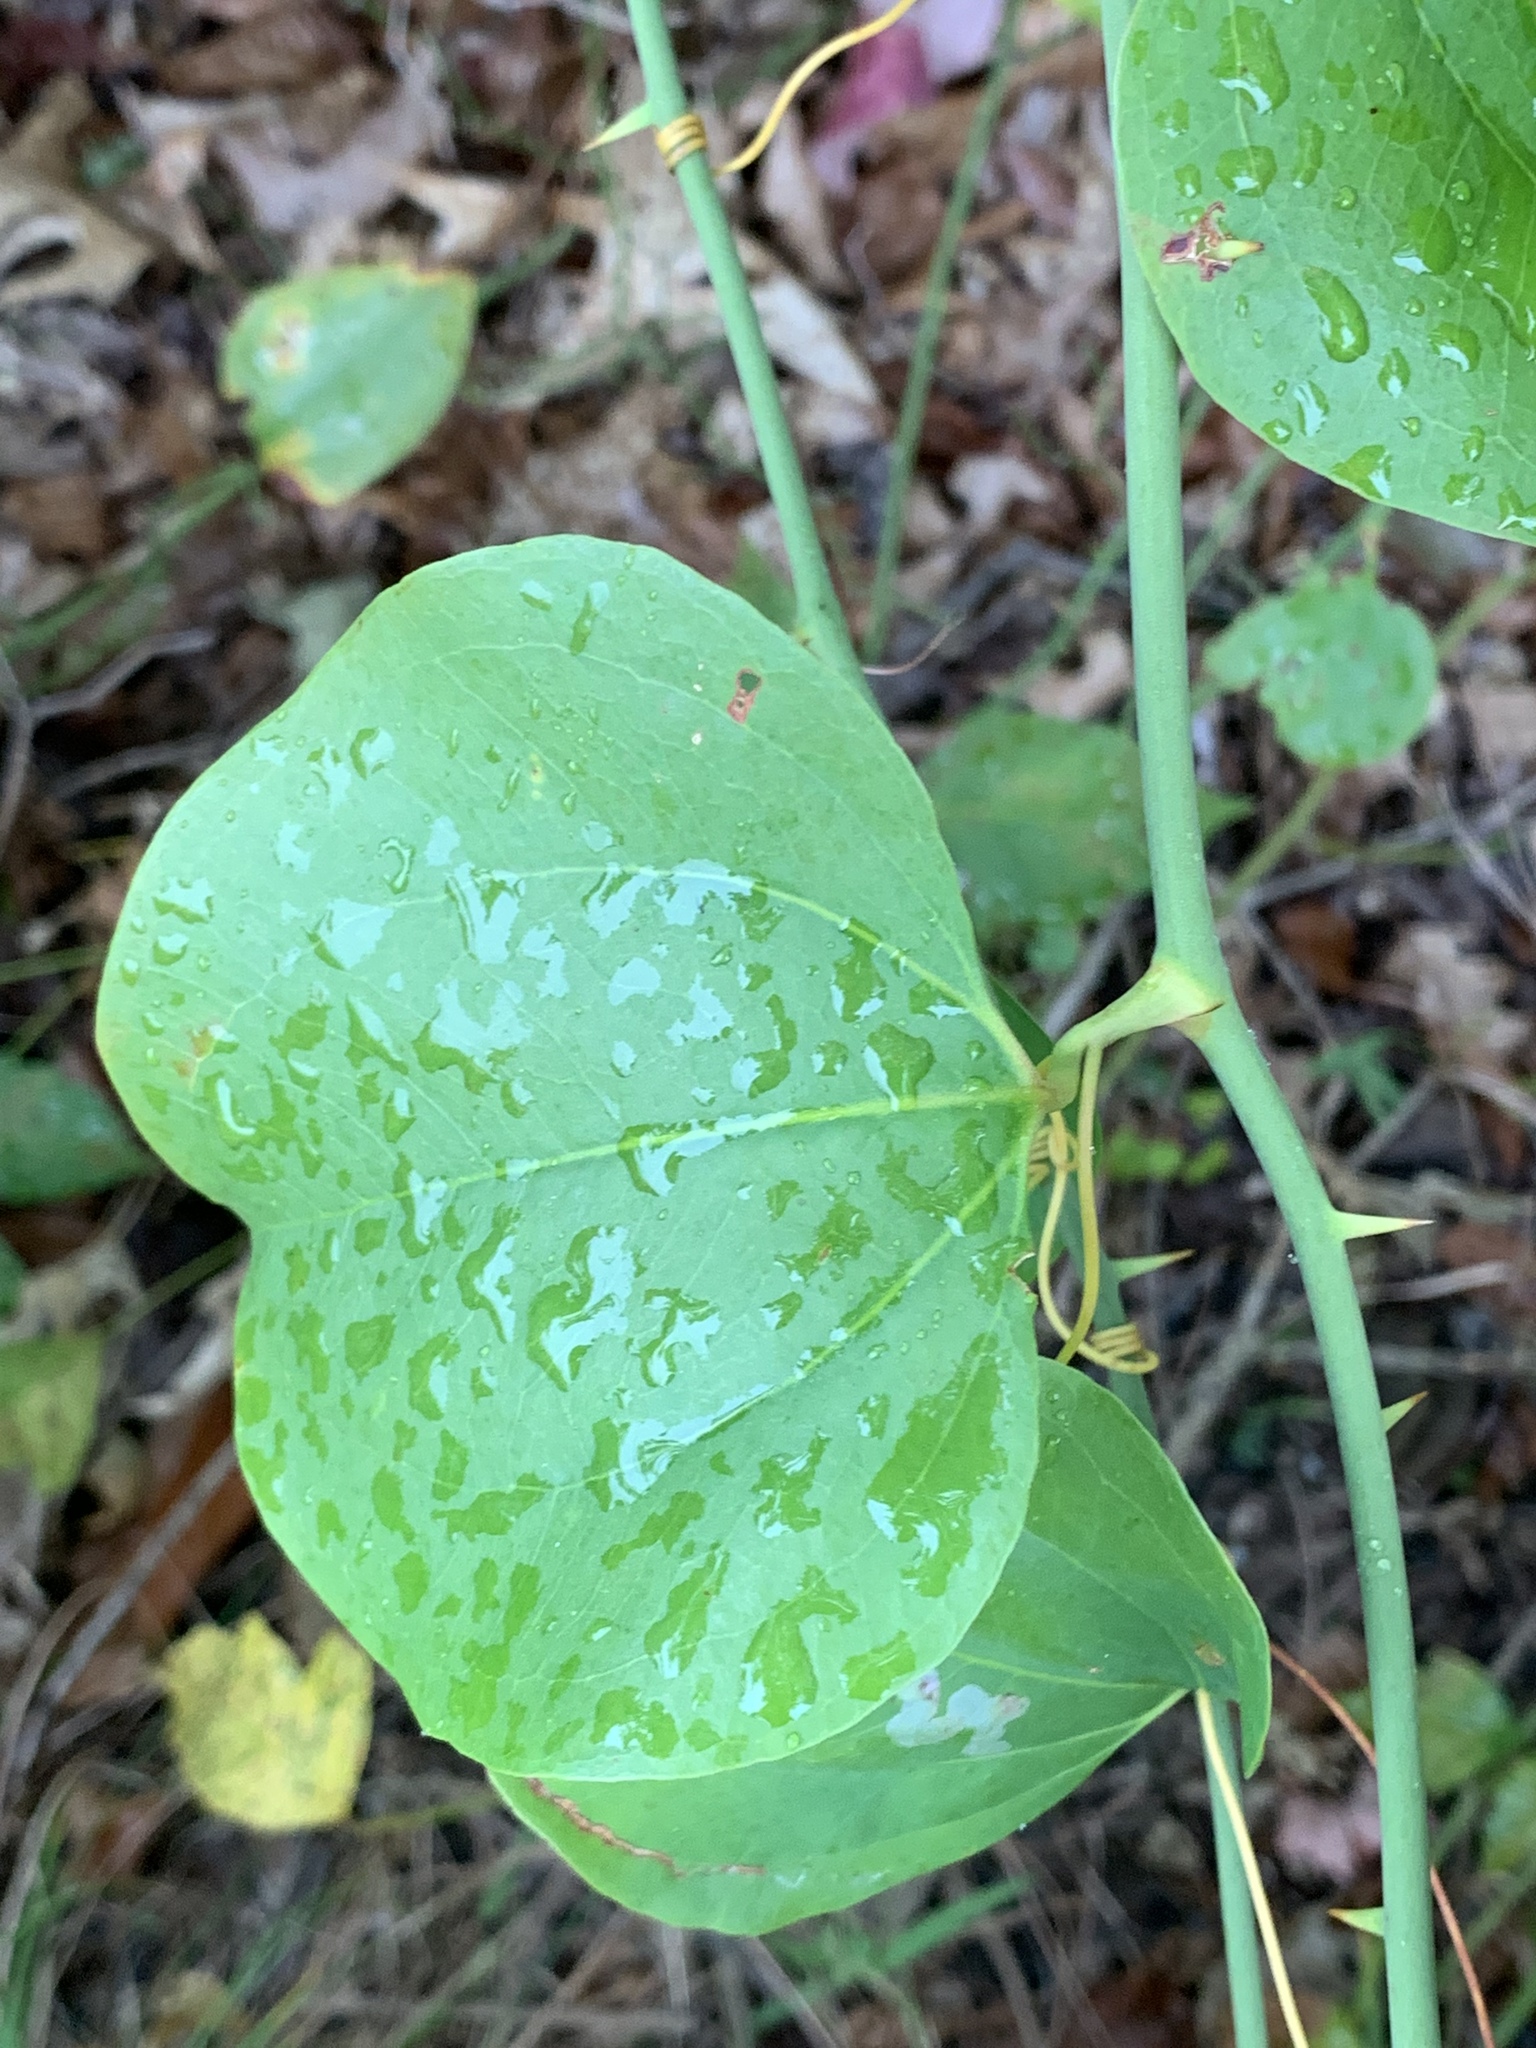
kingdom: Plantae
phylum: Tracheophyta
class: Liliopsida
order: Liliales
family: Smilacaceae
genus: Smilax
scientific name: Smilax rotundifolia
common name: Bullbriar
